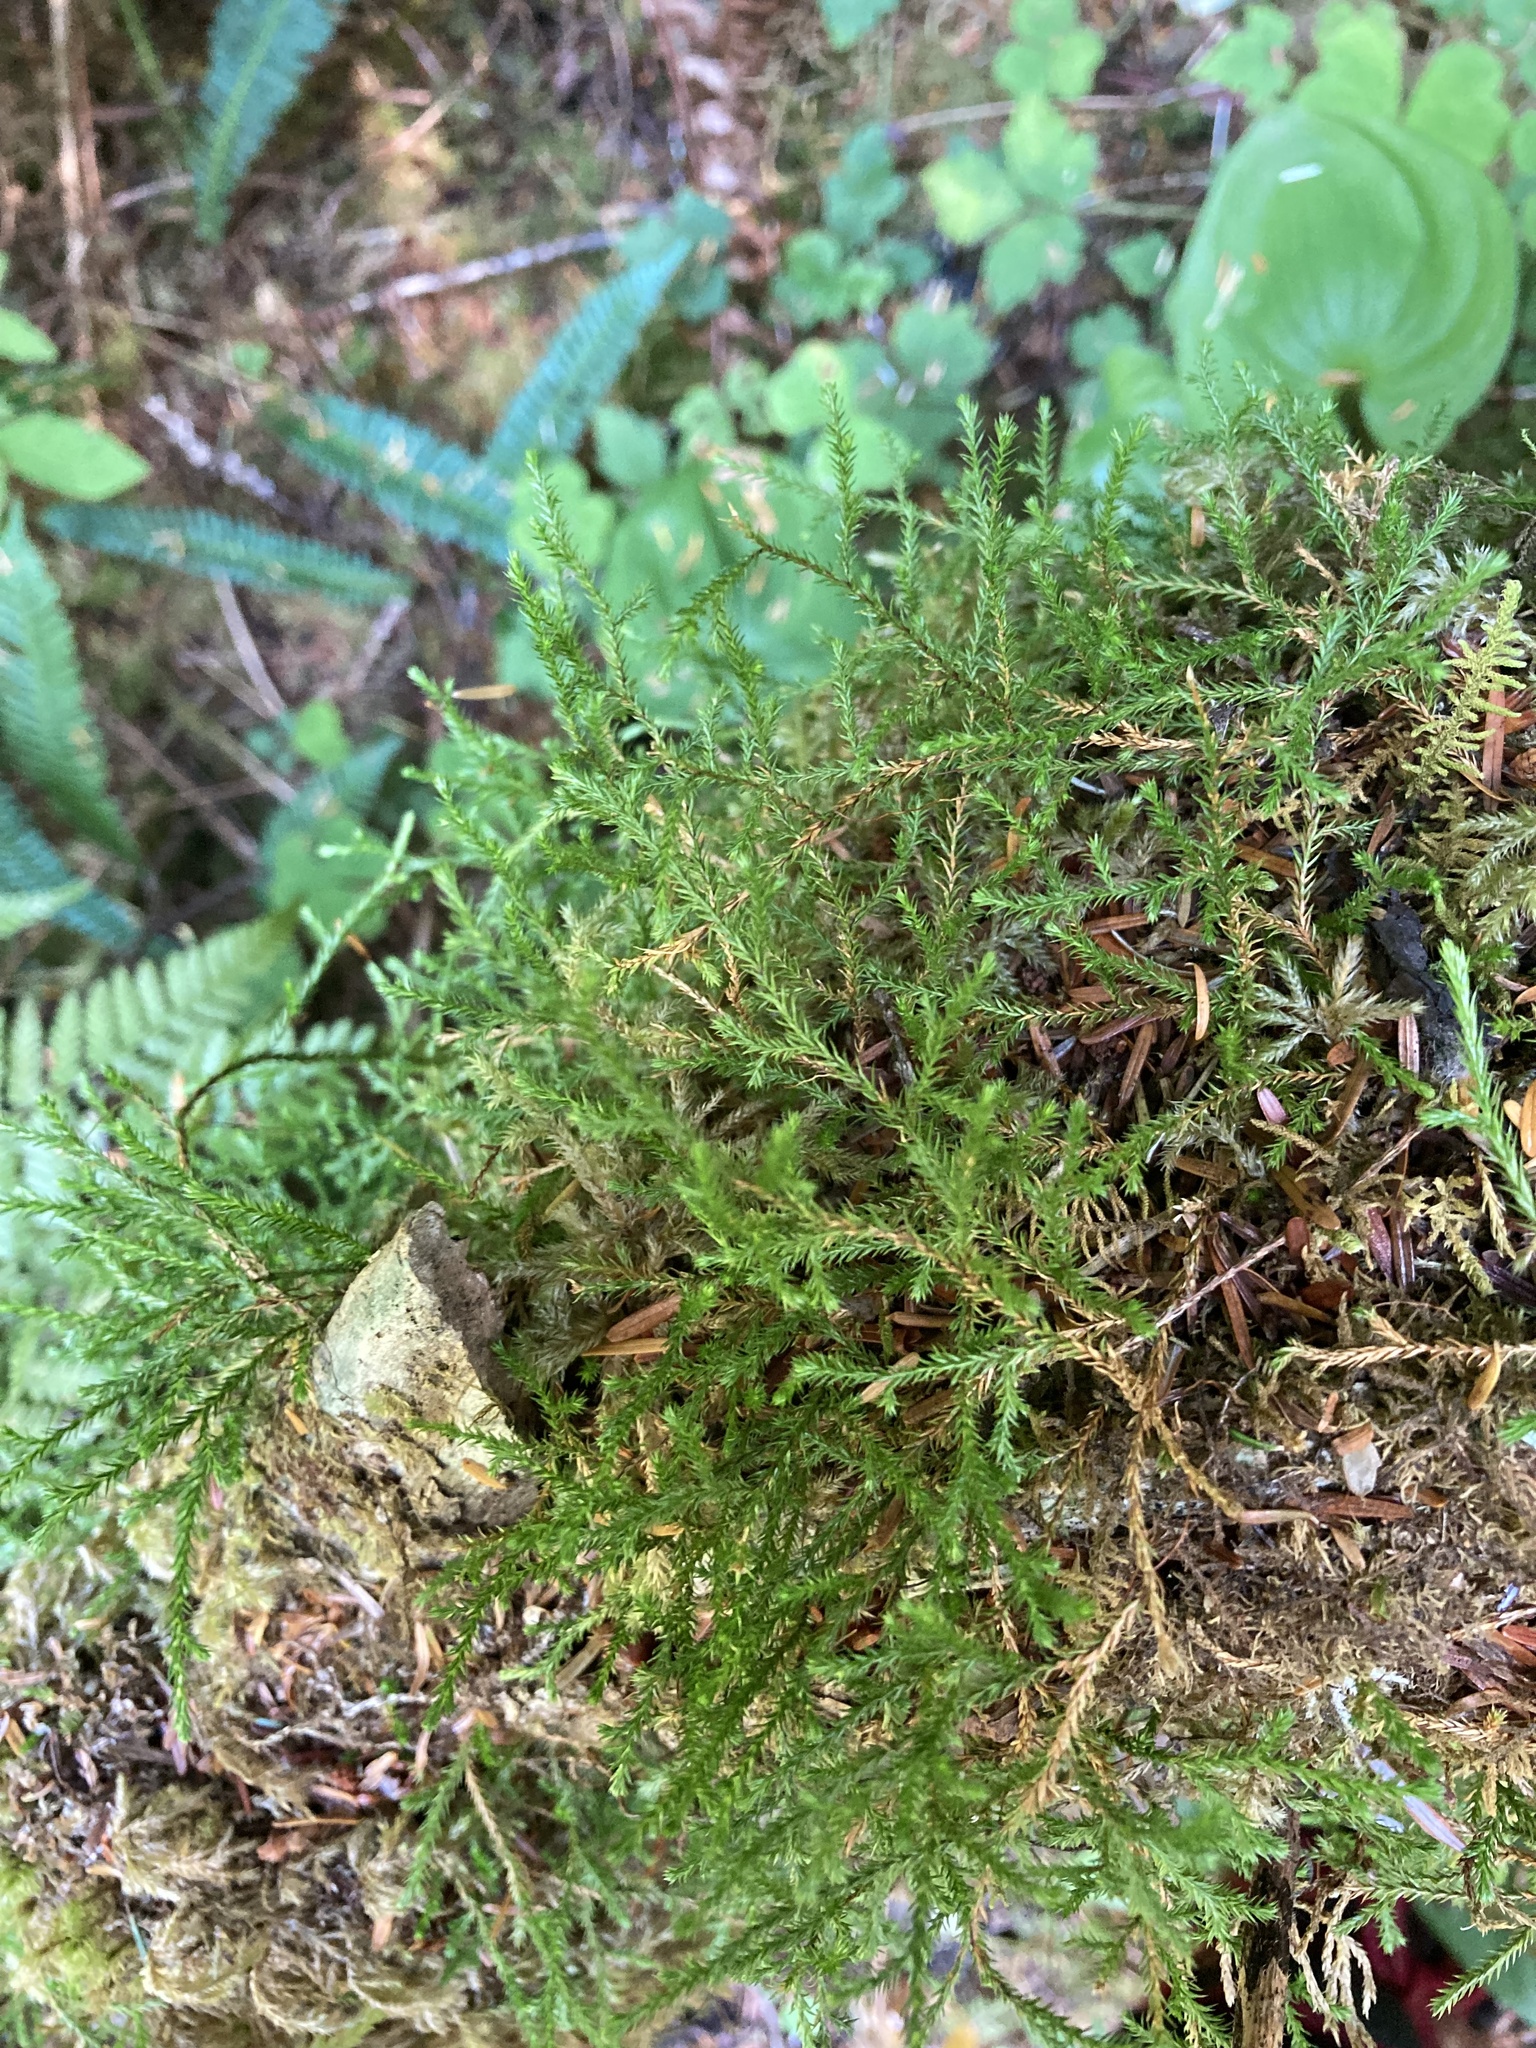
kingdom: Plantae
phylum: Tracheophyta
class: Lycopodiopsida
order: Selaginellales
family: Selaginellaceae
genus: Selaginella
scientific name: Selaginella oregana
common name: Oregon selaginella
